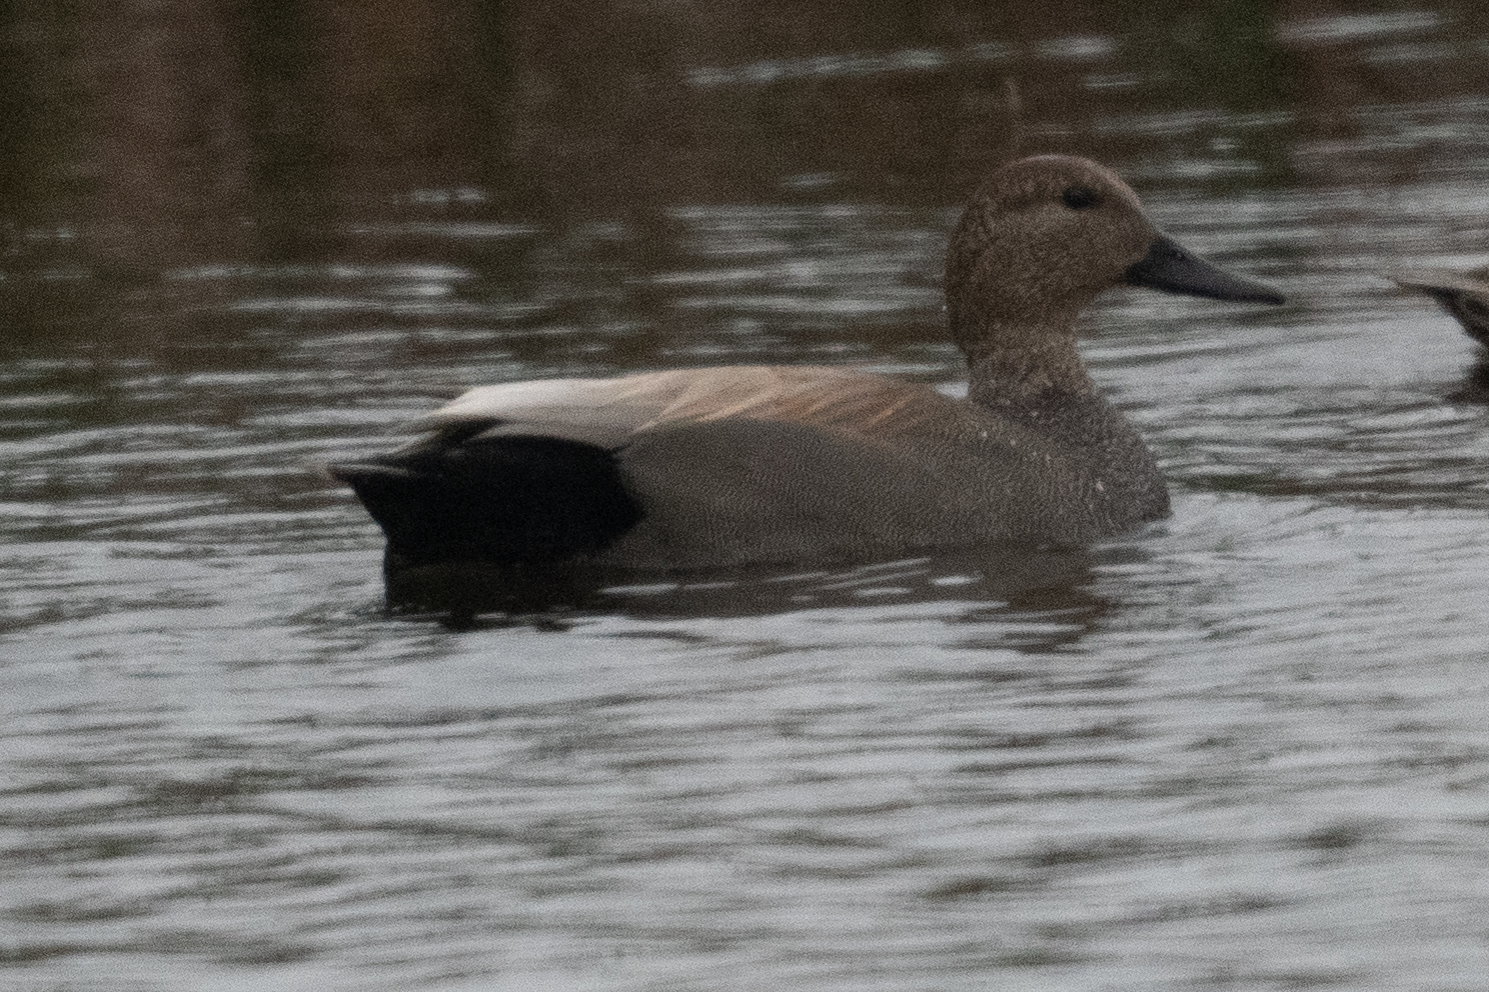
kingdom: Animalia
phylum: Chordata
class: Aves
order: Anseriformes
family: Anatidae
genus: Mareca
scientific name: Mareca strepera
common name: Gadwall
